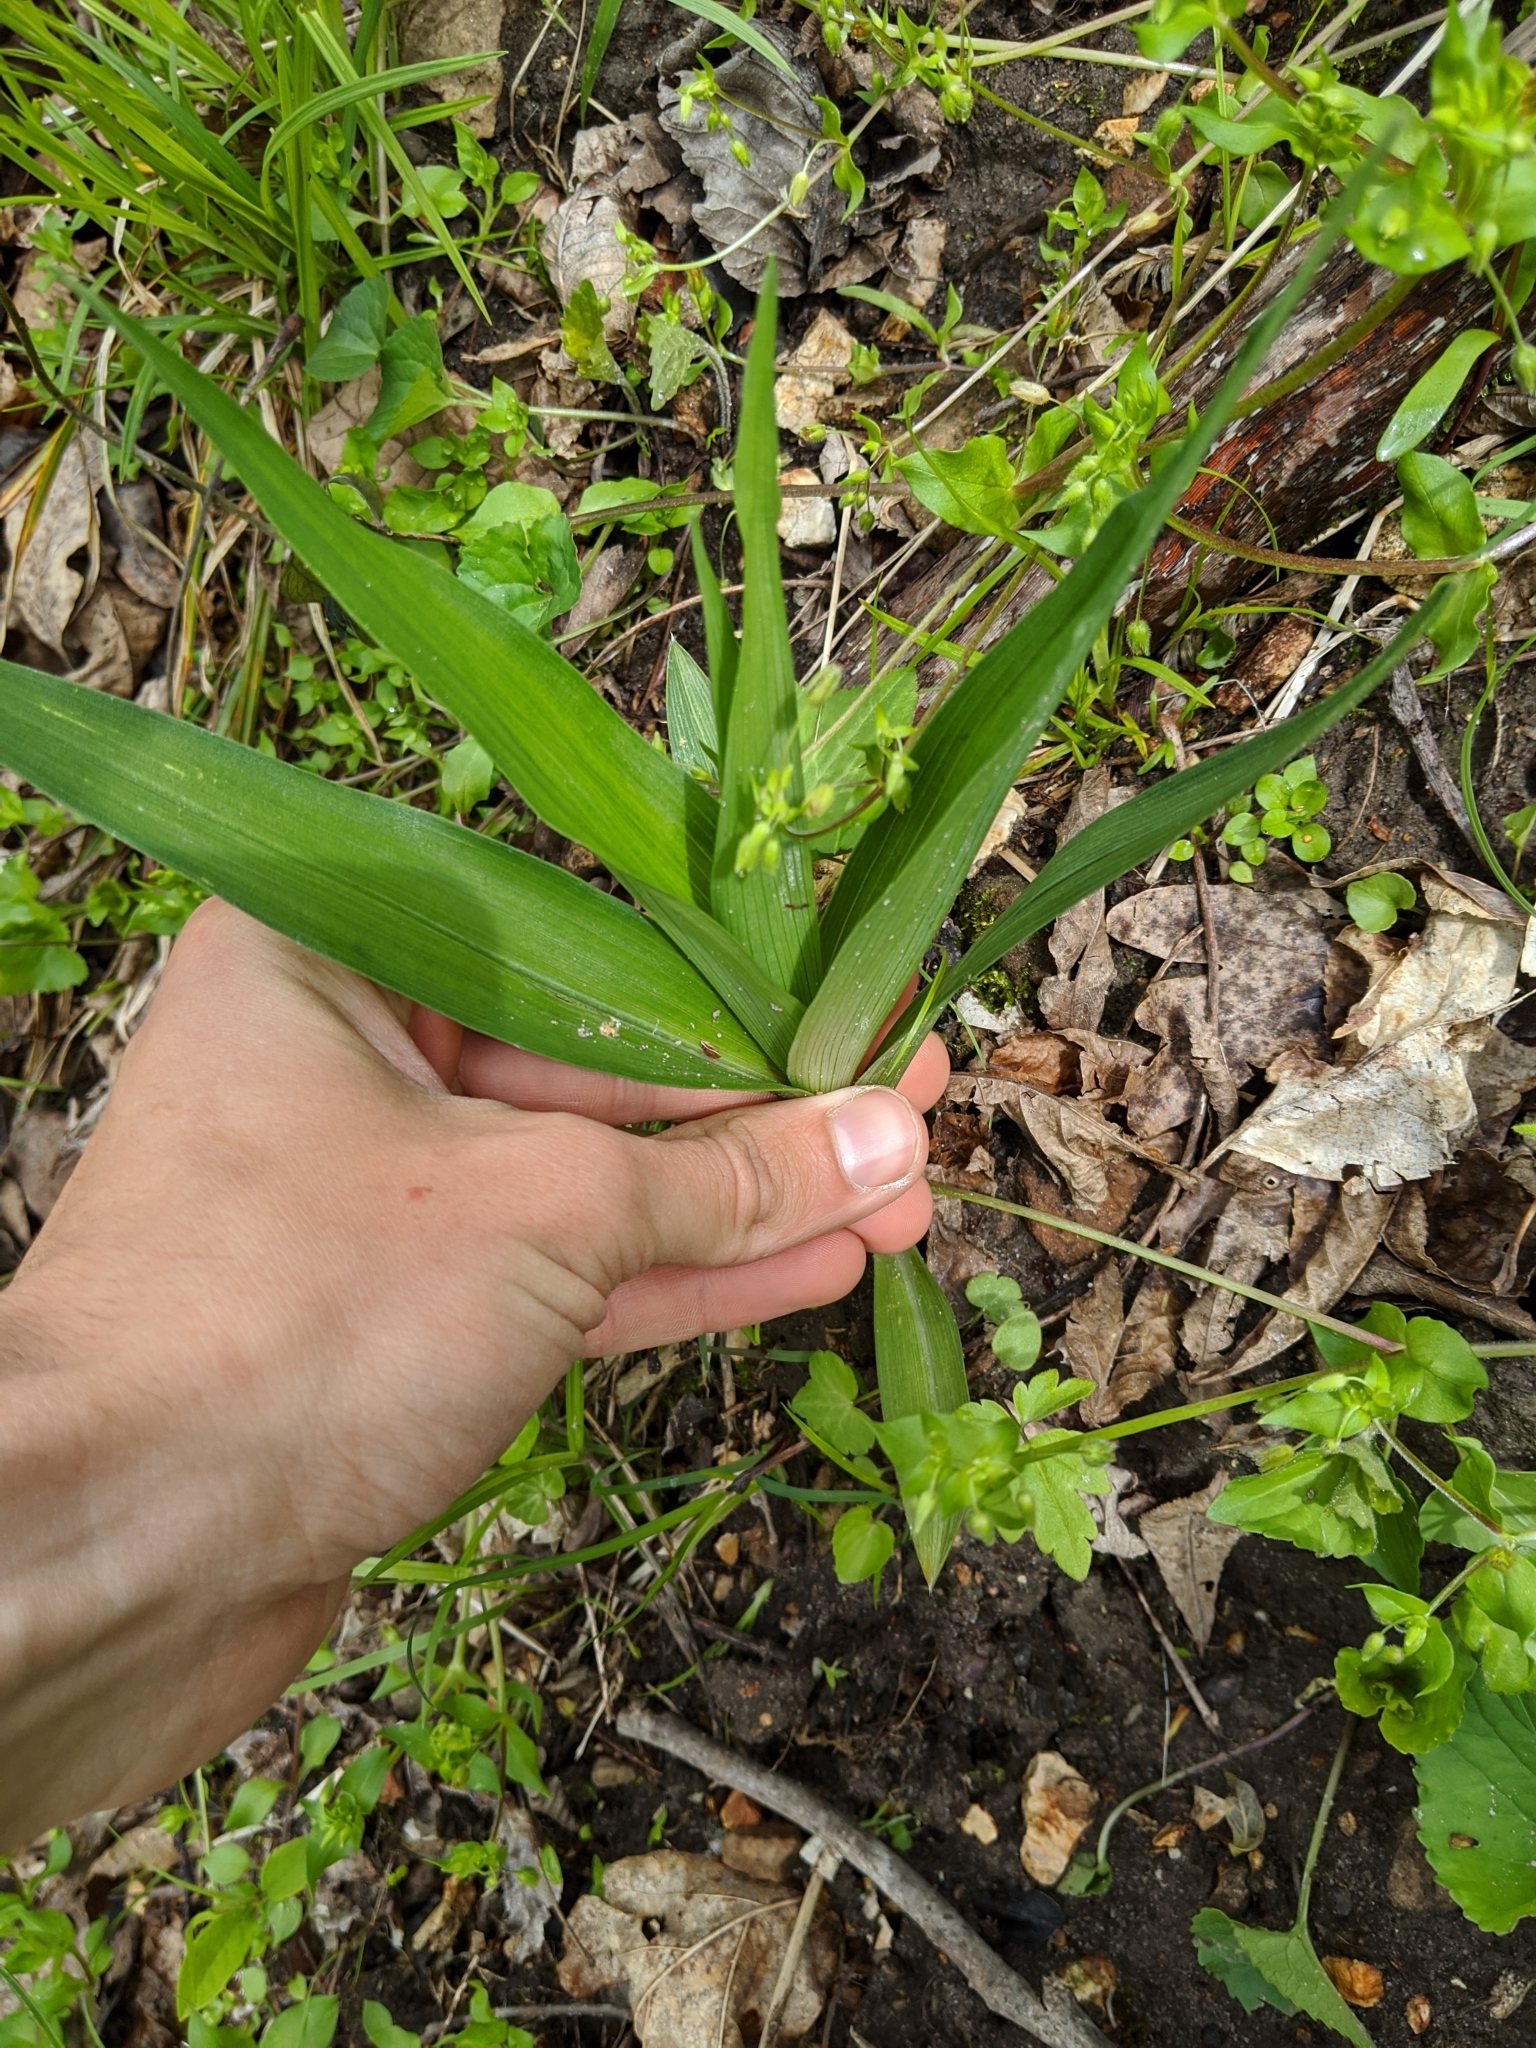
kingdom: Plantae
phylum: Tracheophyta
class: Liliopsida
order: Commelinales
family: Commelinaceae
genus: Tradescantia
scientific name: Tradescantia subaspera
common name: Wide-leaf spiderwort
